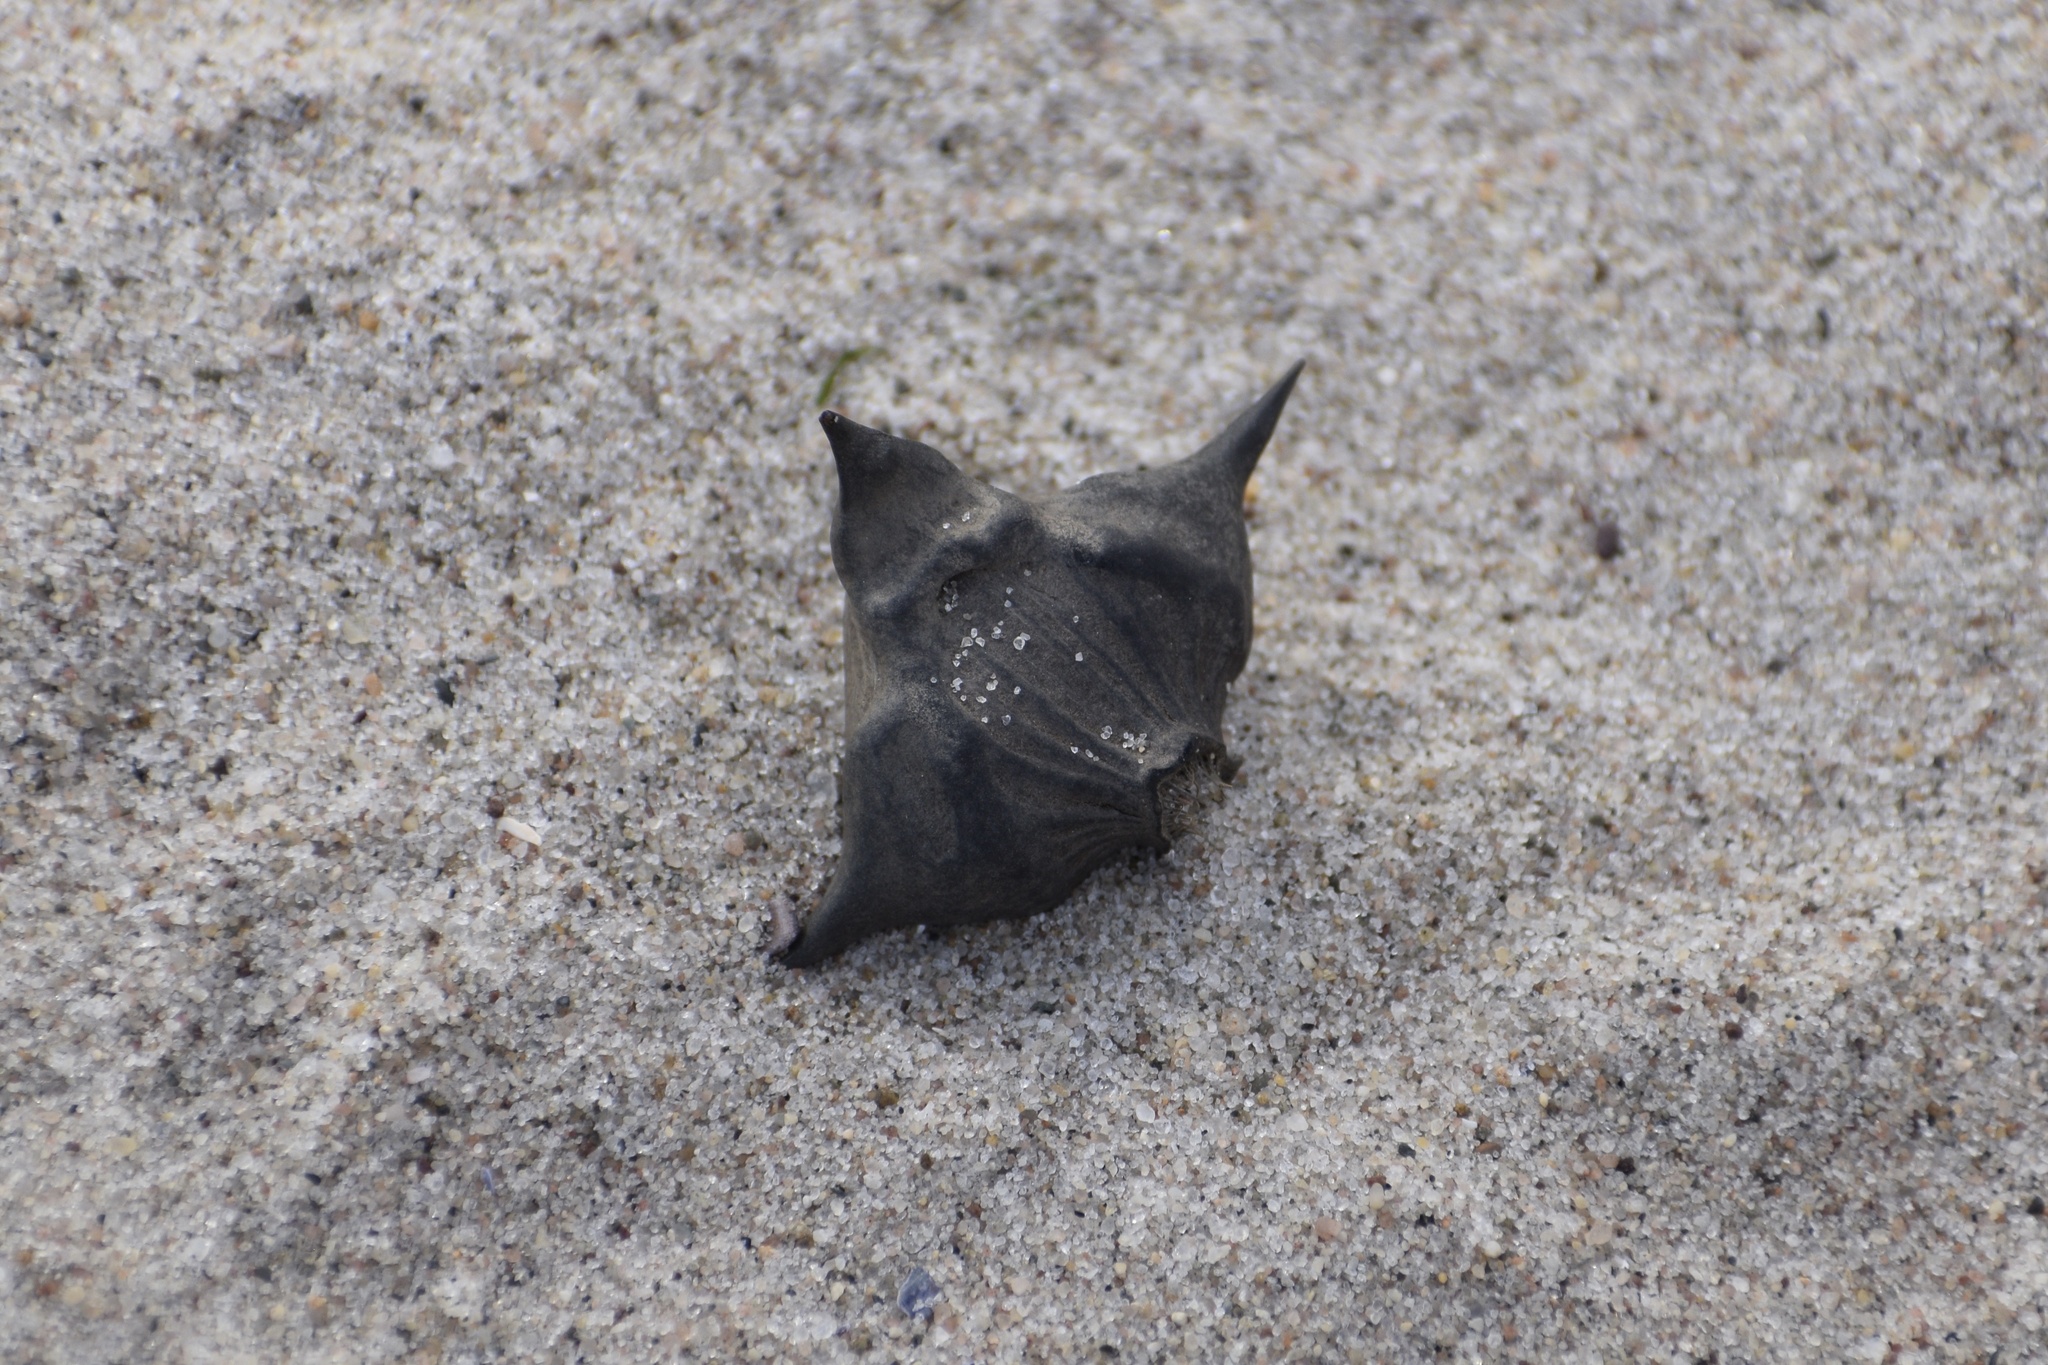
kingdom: Plantae
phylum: Tracheophyta
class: Magnoliopsida
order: Myrtales
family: Lythraceae
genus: Trapa
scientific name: Trapa natans
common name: Water chestnut
